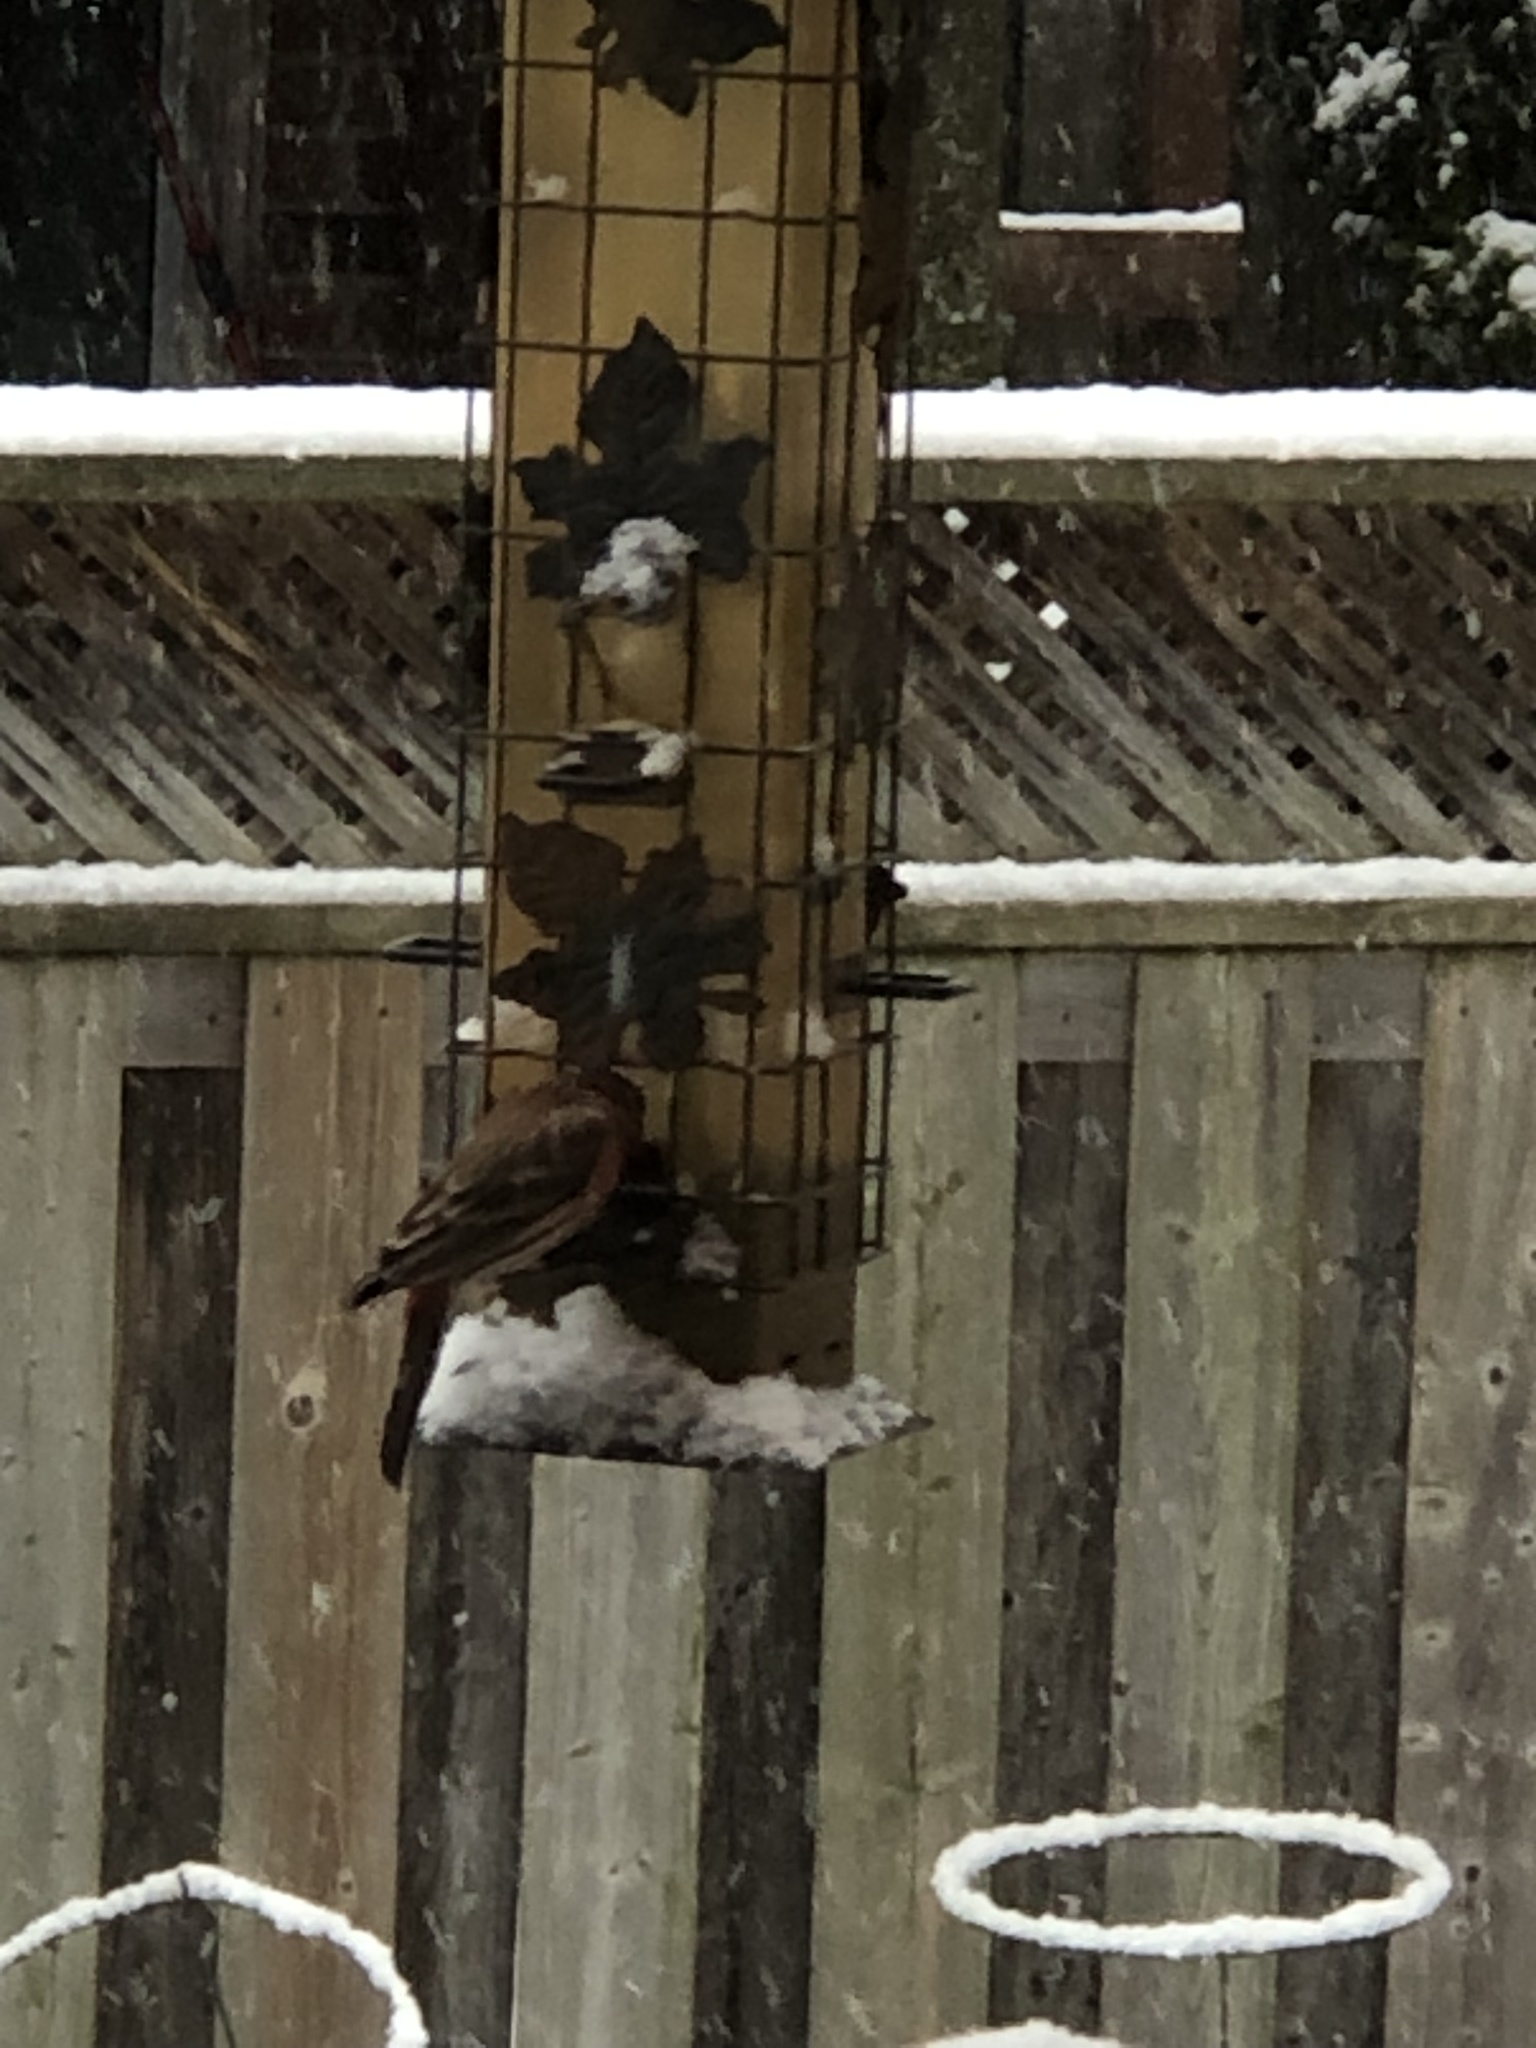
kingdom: Animalia
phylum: Chordata
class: Aves
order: Passeriformes
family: Fringillidae
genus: Haemorhous
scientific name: Haemorhous mexicanus
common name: House finch
